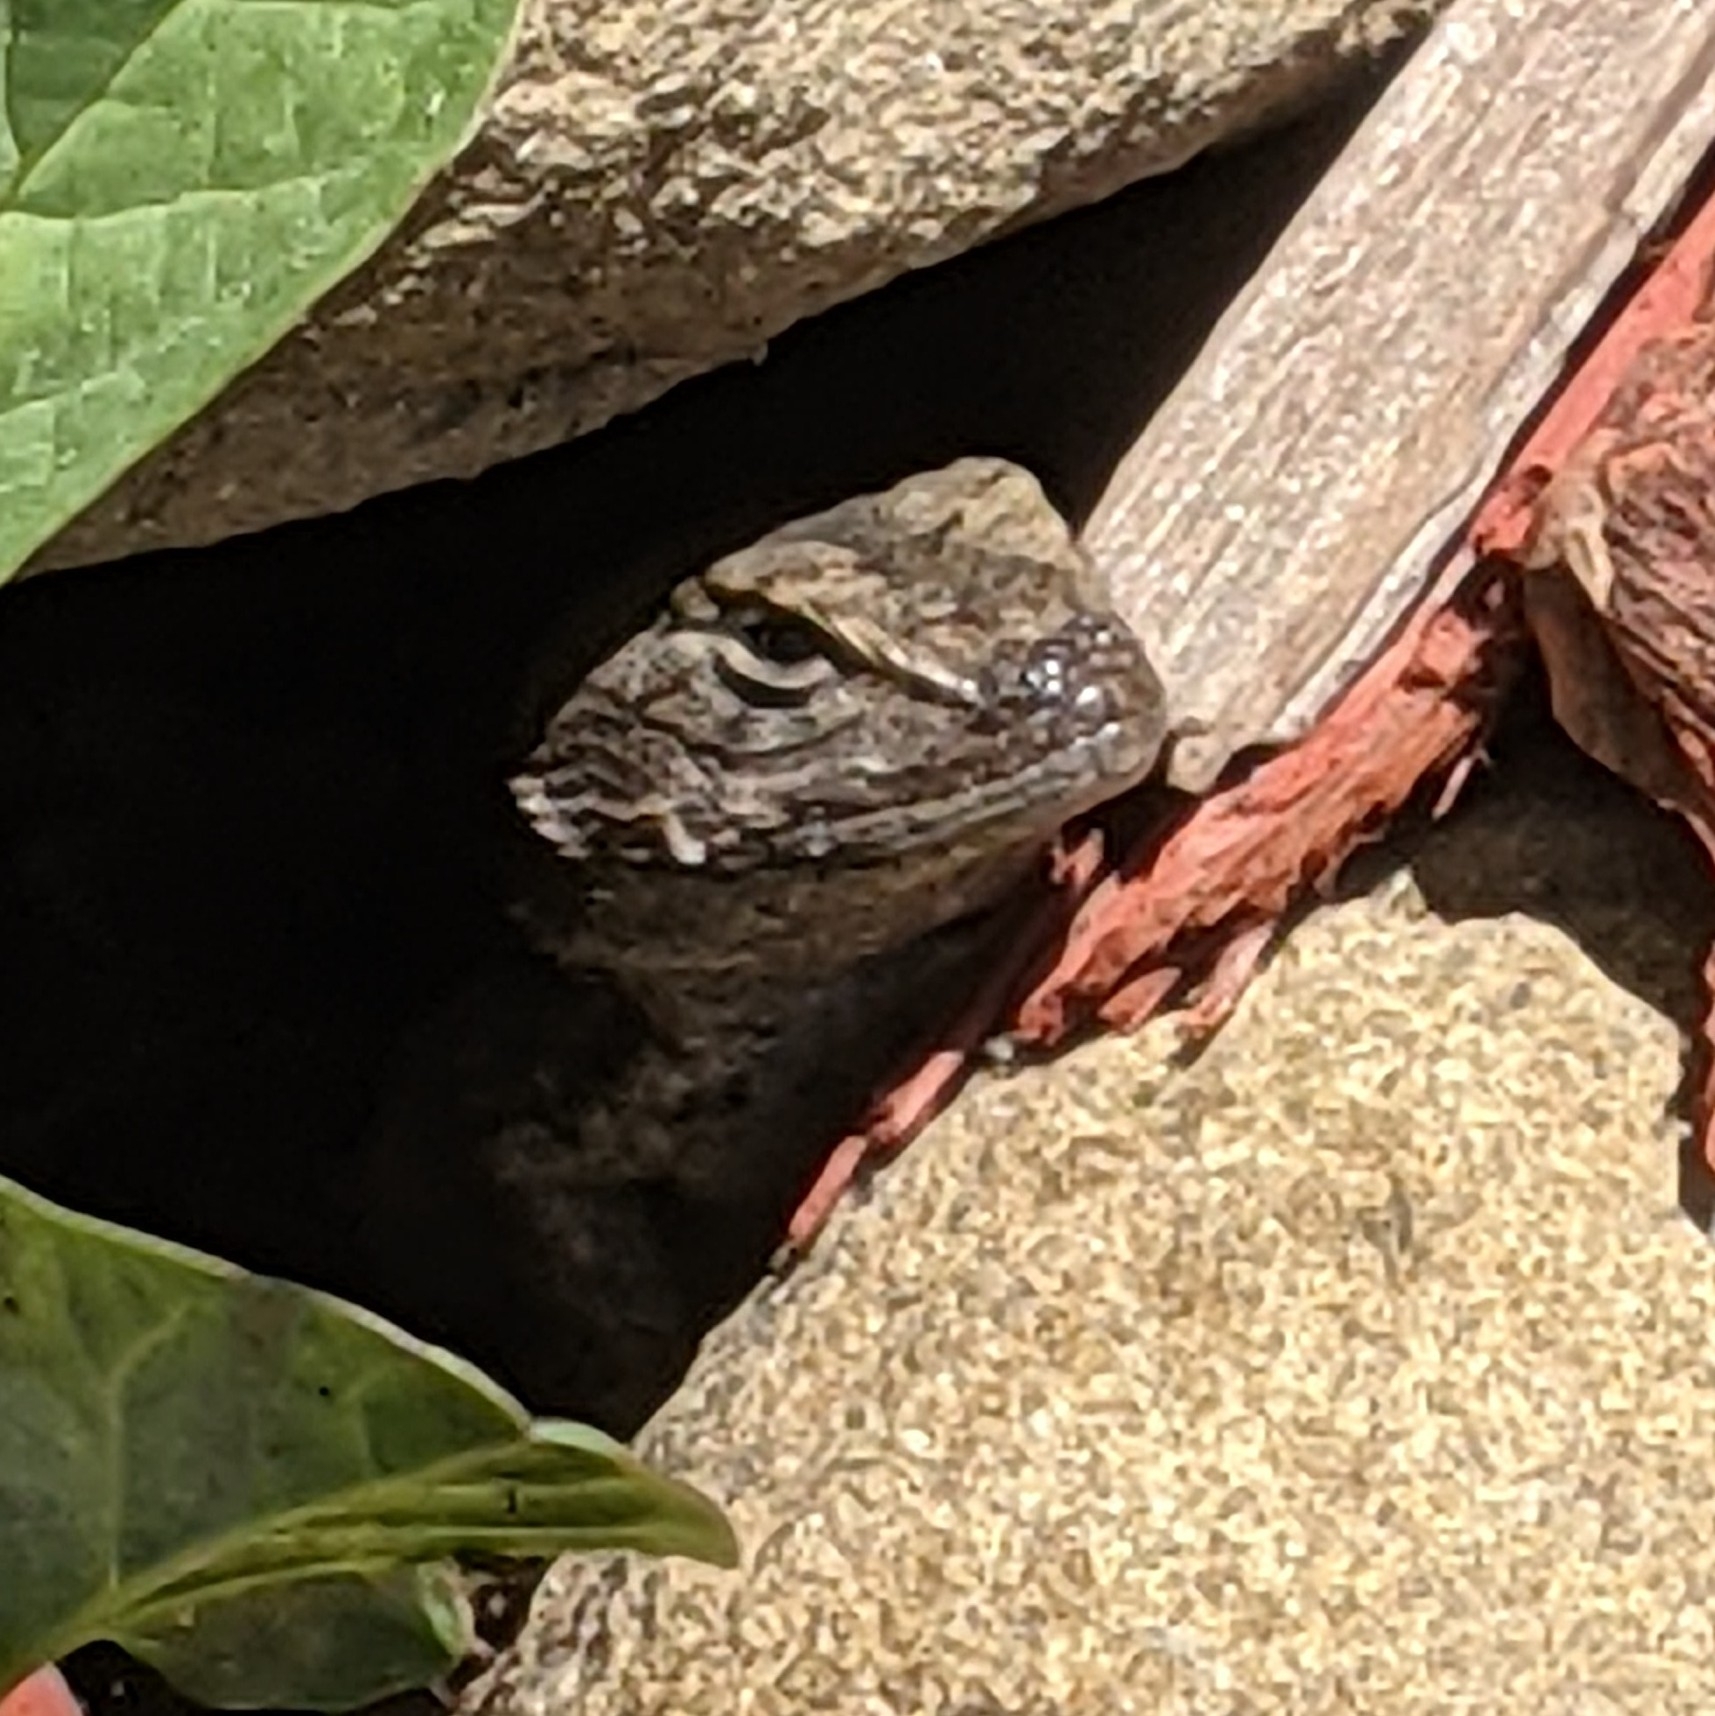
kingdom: Animalia
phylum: Chordata
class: Squamata
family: Phrynosomatidae
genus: Sceloporus
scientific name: Sceloporus occidentalis
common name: Western fence lizard
